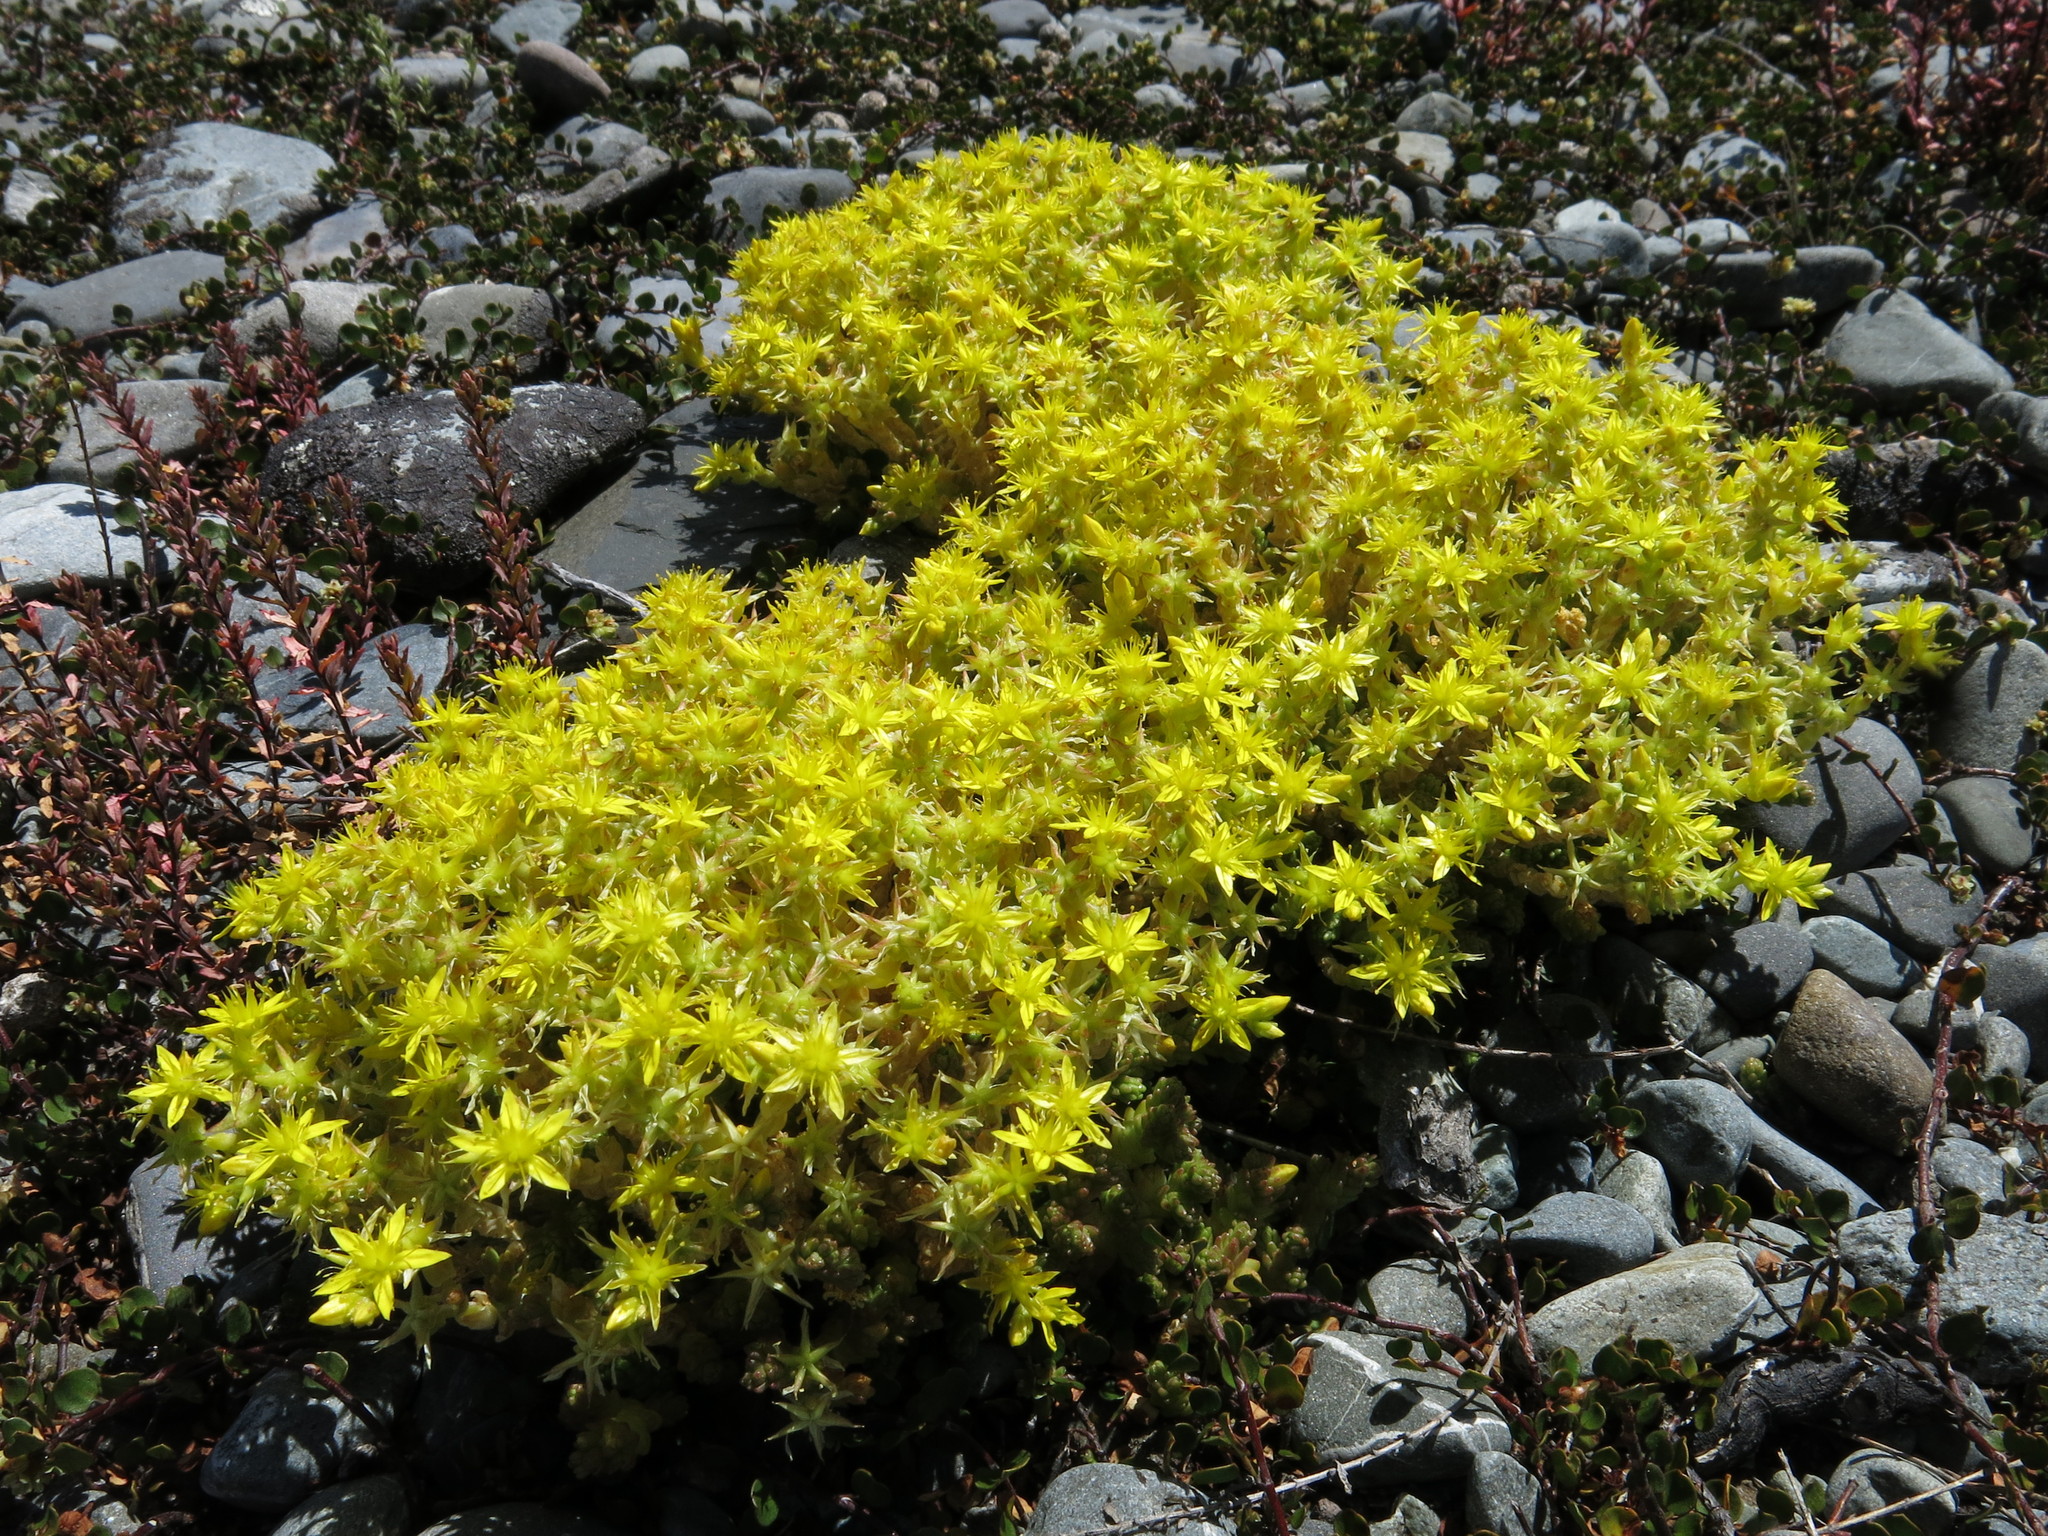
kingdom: Plantae
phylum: Tracheophyta
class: Magnoliopsida
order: Saxifragales
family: Crassulaceae
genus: Sedum
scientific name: Sedum acre
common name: Biting stonecrop
